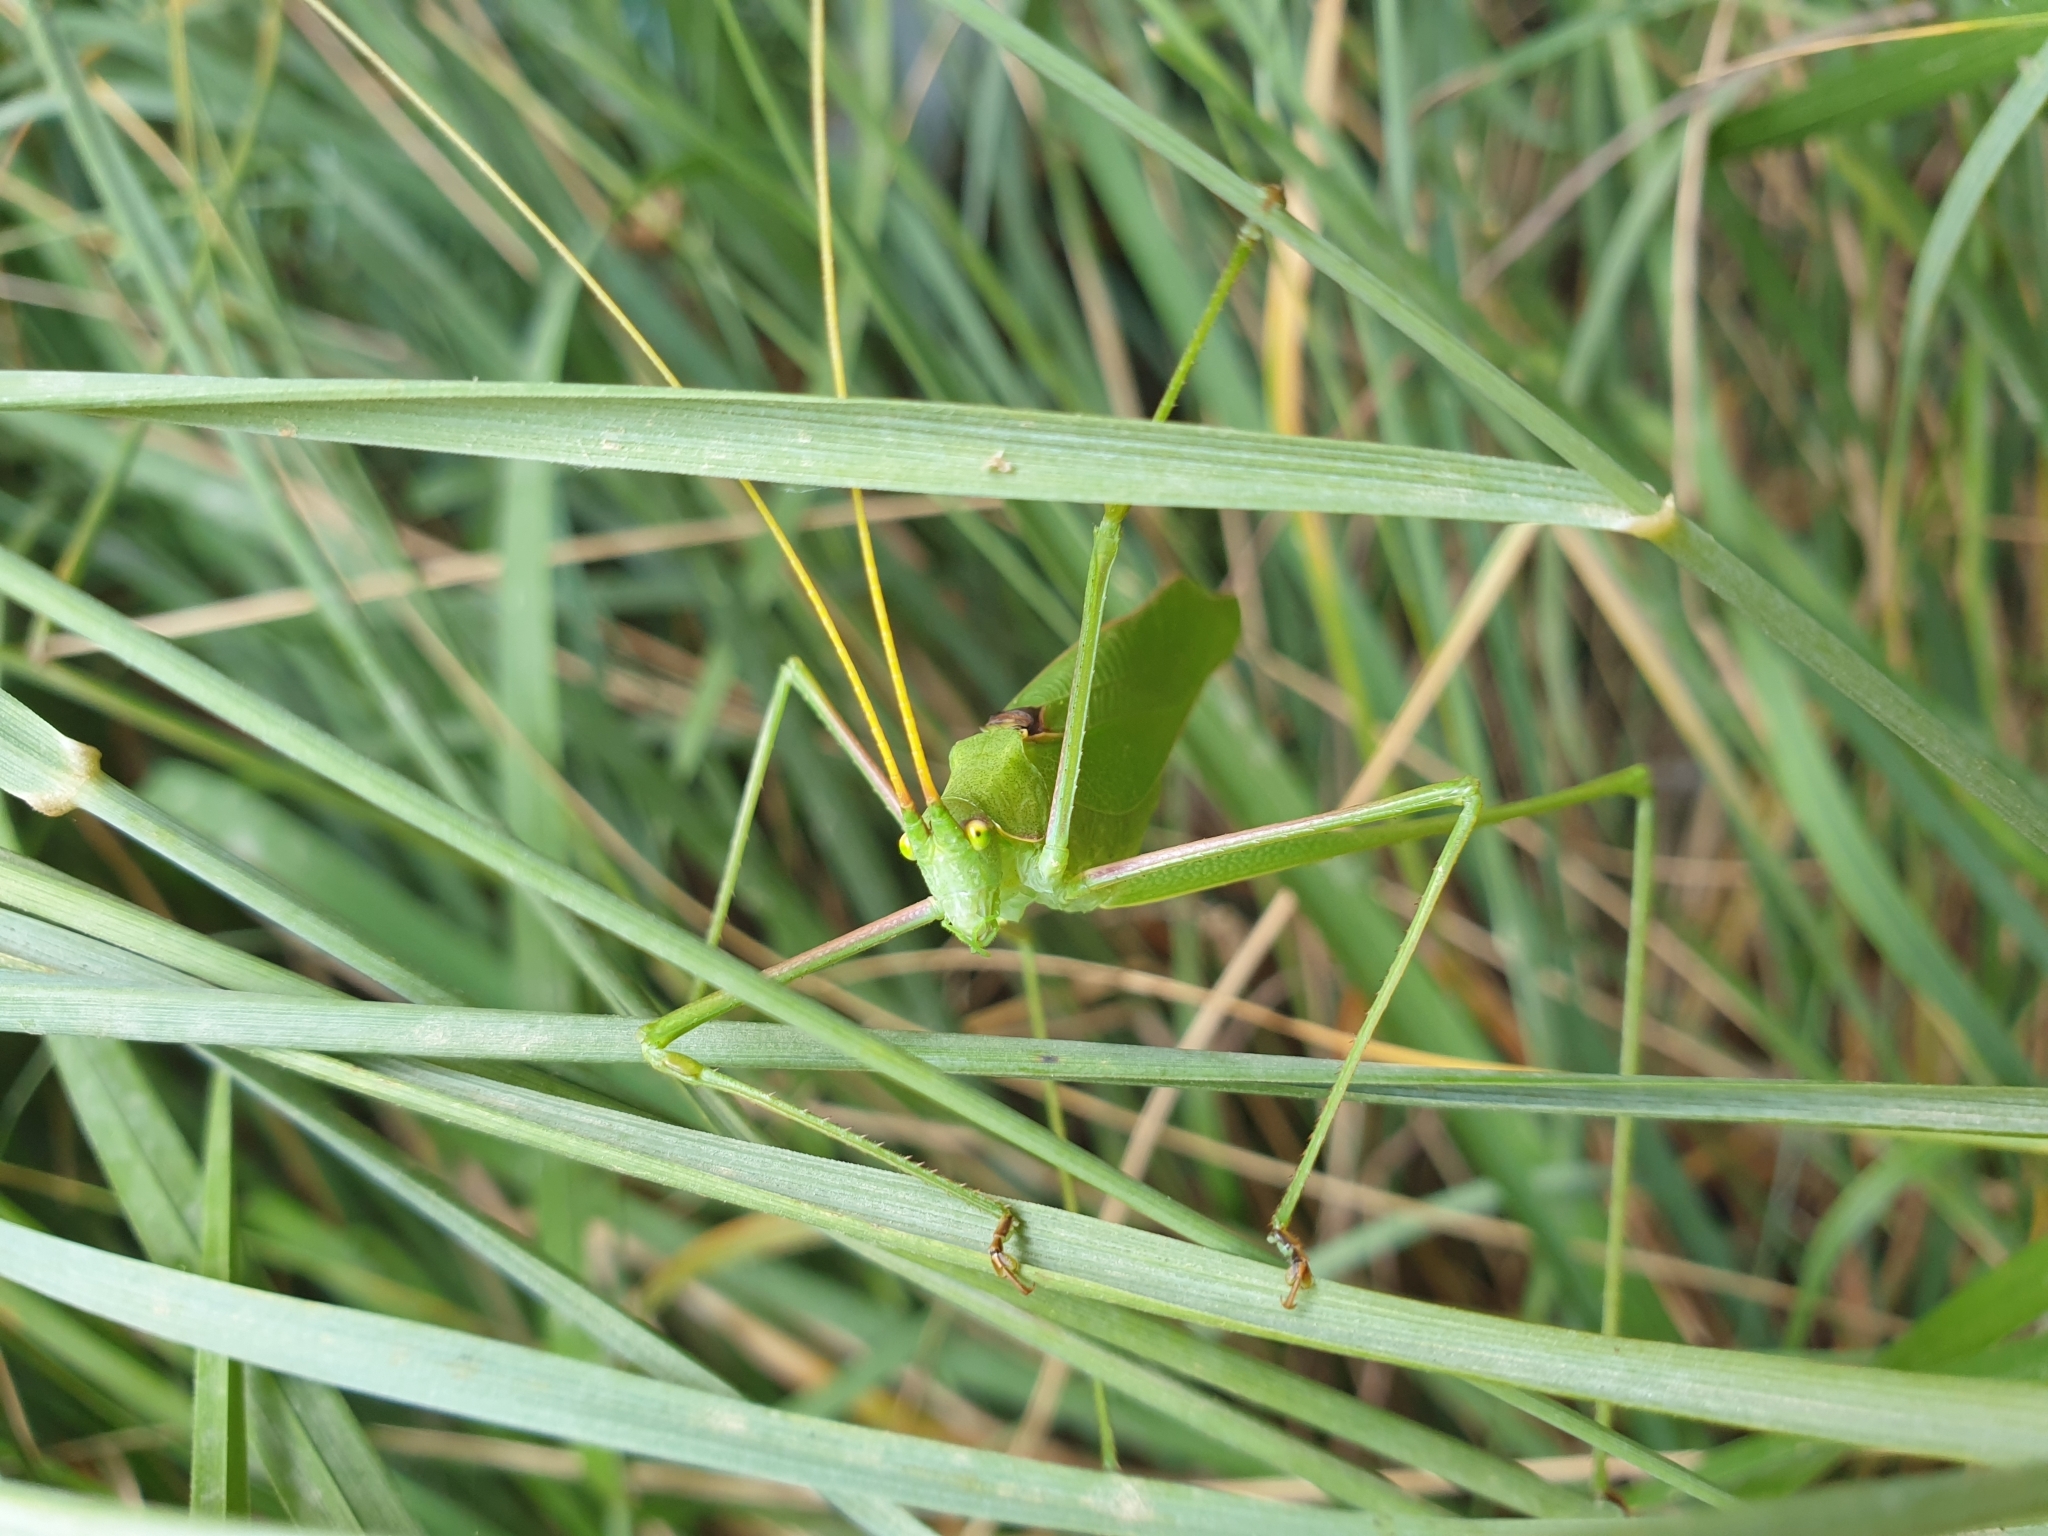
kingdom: Animalia
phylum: Arthropoda
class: Insecta
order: Orthoptera
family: Tettigoniidae
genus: Acrometopa
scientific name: Acrometopa macropoda
